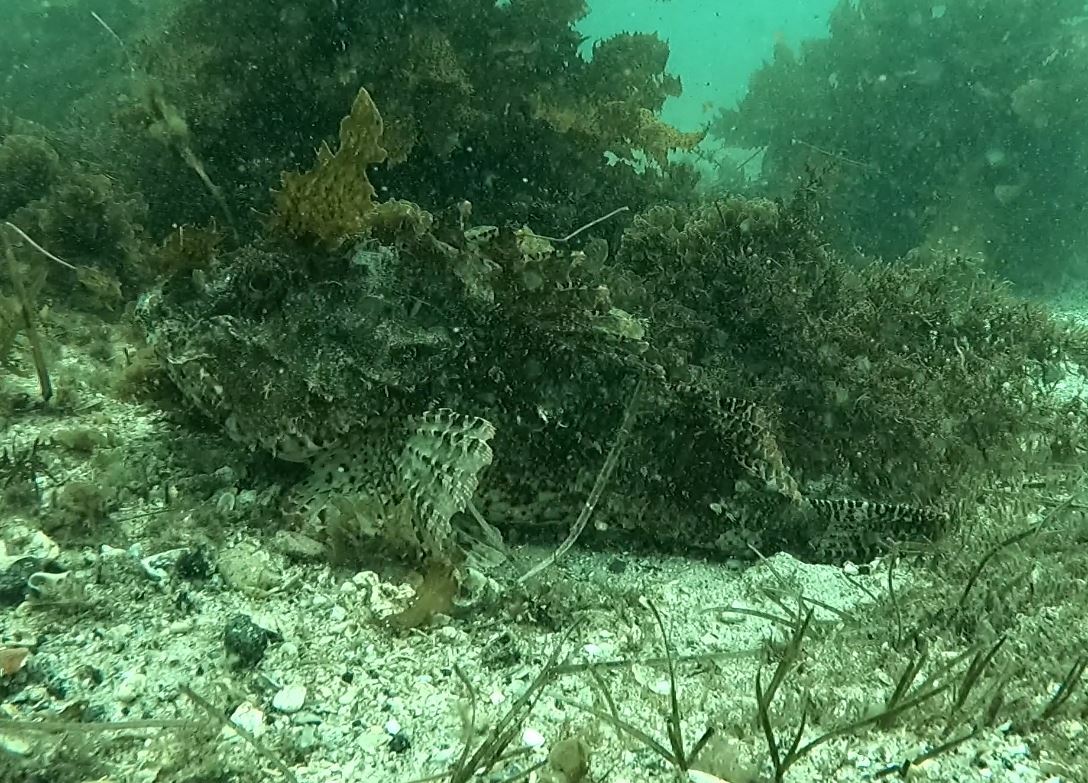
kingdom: Animalia
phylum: Chordata
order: Scorpaeniformes
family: Scorpaenidae
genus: Scorpaena
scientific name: Scorpaena jacksoniensis
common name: Eastern red scorpionfish
